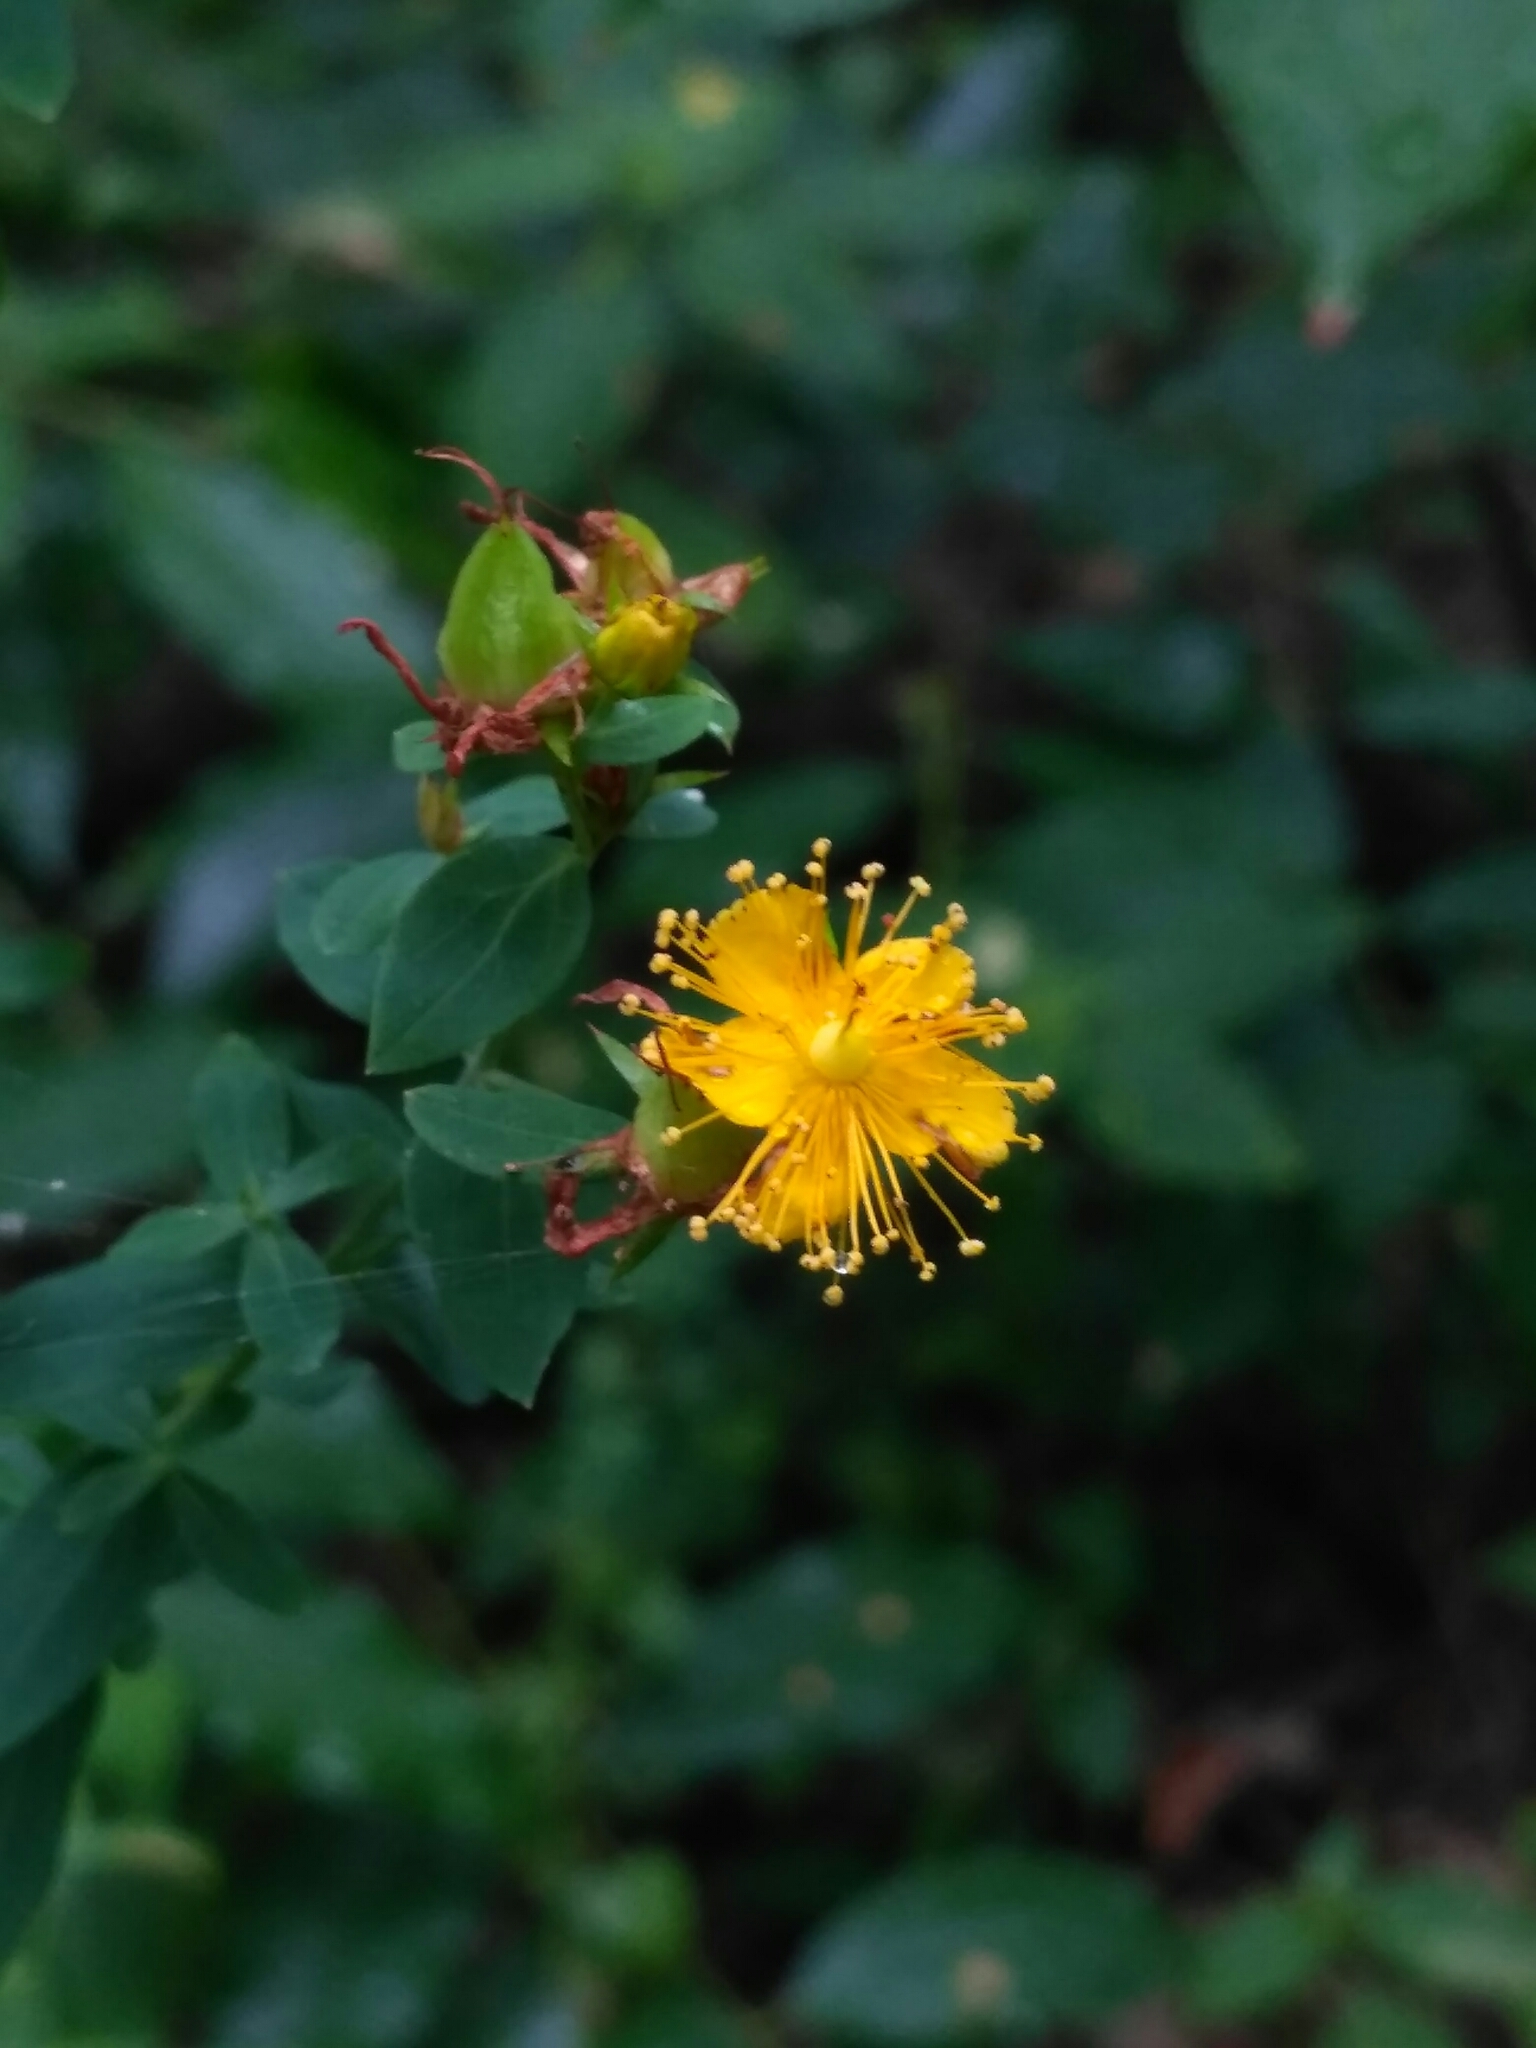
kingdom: Plantae
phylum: Tracheophyta
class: Magnoliopsida
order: Malpighiales
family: Hypericaceae
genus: Hypericum
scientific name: Hypericum perforatum
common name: Common st. johnswort
